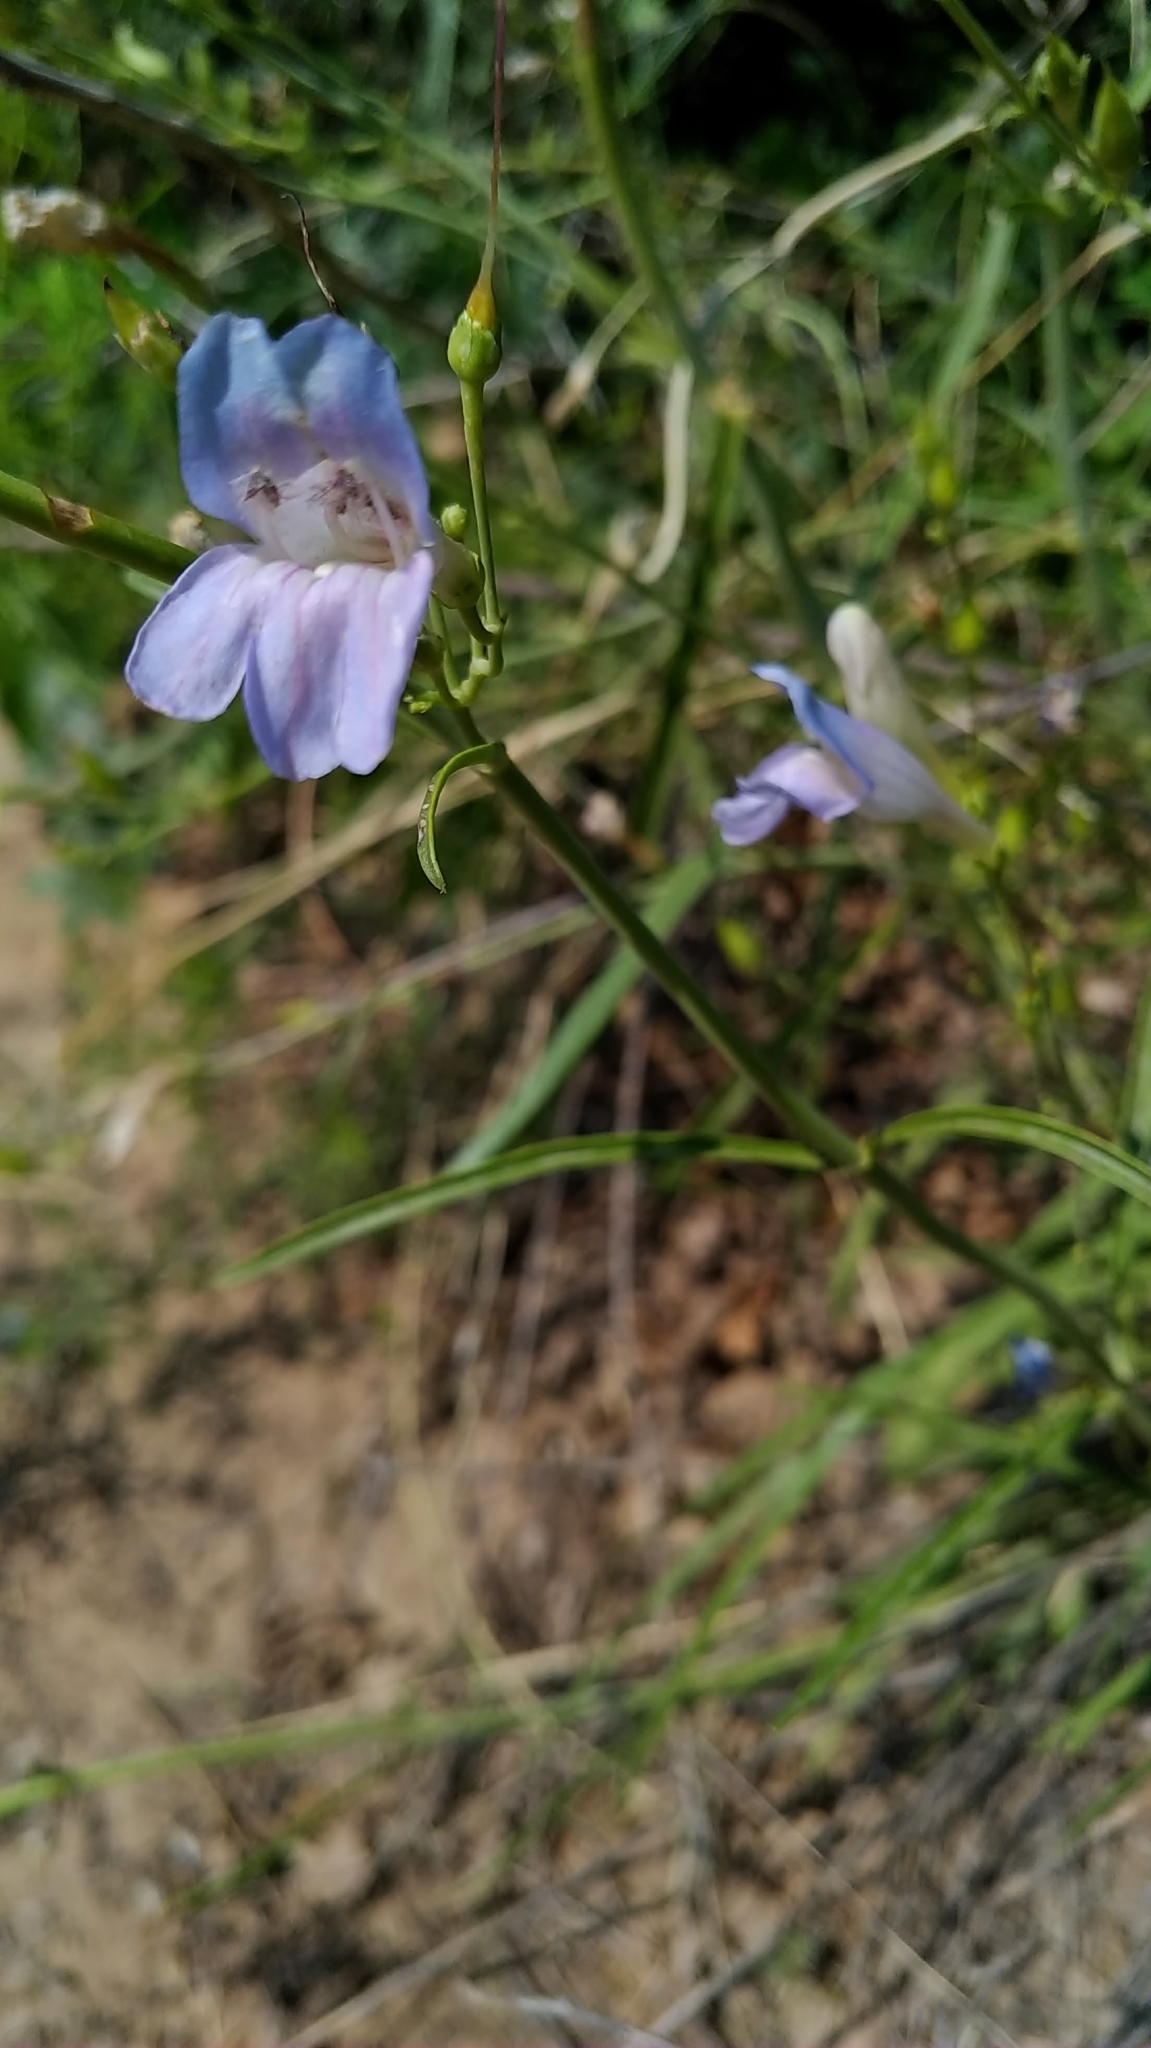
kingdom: Plantae
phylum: Tracheophyta
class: Magnoliopsida
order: Lamiales
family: Plantaginaceae
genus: Penstemon
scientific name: Penstemon comarrhenus
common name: Dusty penstemon
